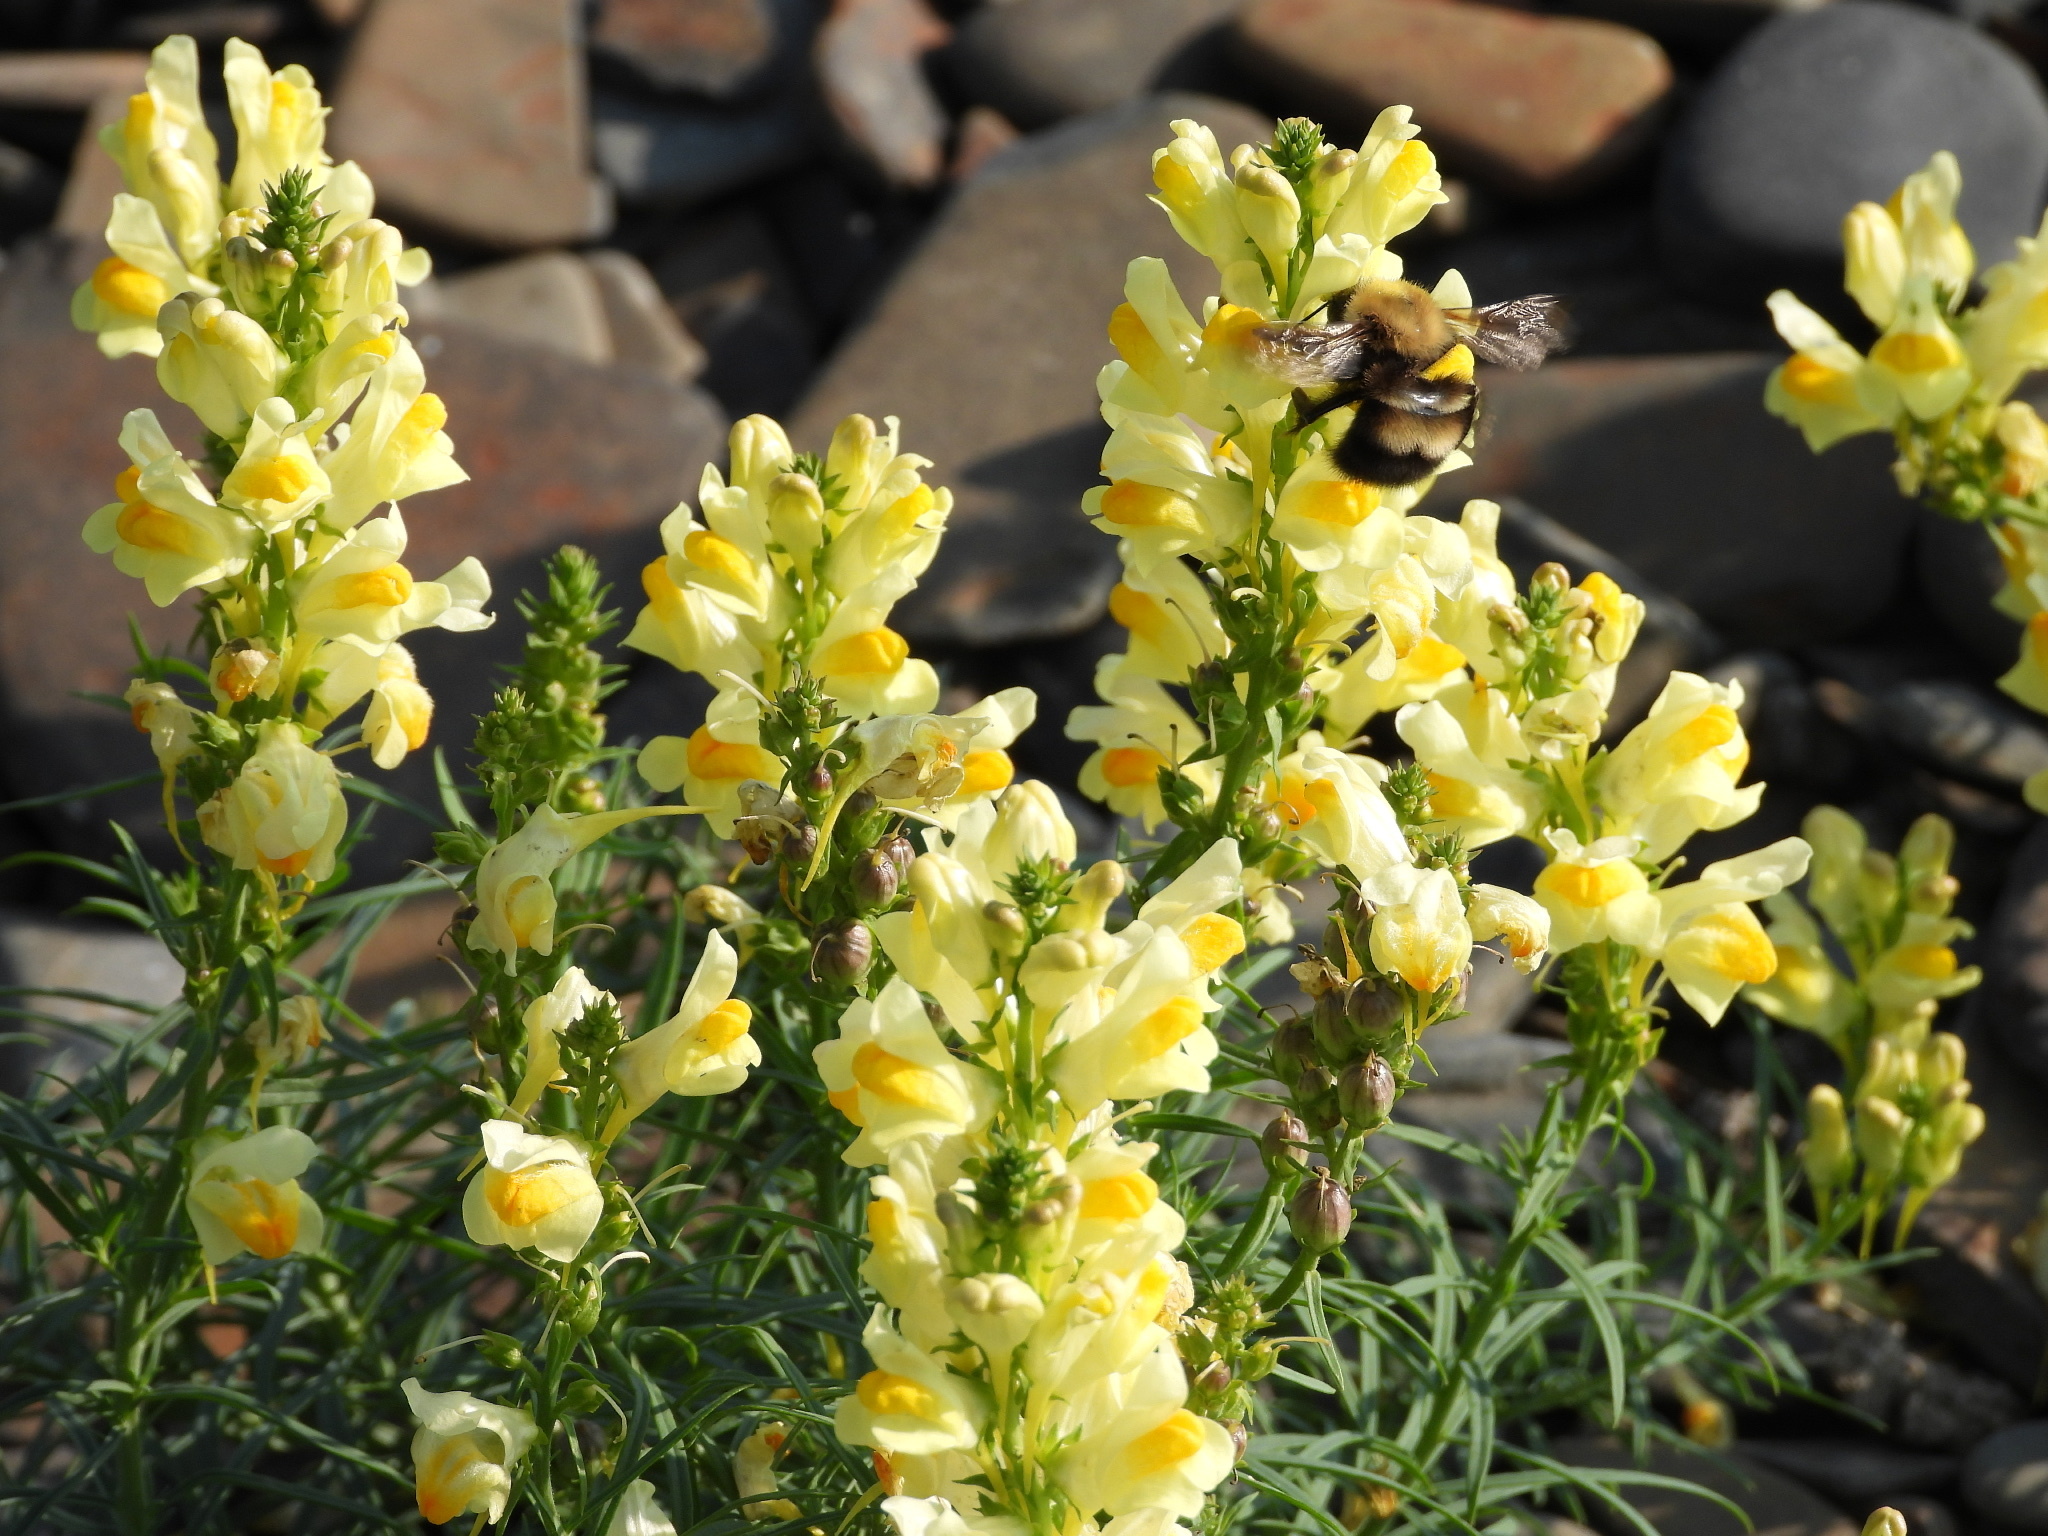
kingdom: Animalia
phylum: Arthropoda
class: Insecta
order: Hymenoptera
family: Apidae
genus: Bombus
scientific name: Bombus perplexus
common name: Confusing bumble bee
